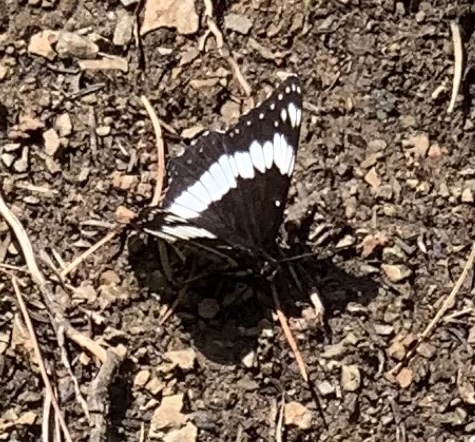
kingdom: Animalia
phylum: Arthropoda
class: Insecta
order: Lepidoptera
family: Nymphalidae
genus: Limenitis
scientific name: Limenitis weidemeyerii
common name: Weidemeyer's admiral
